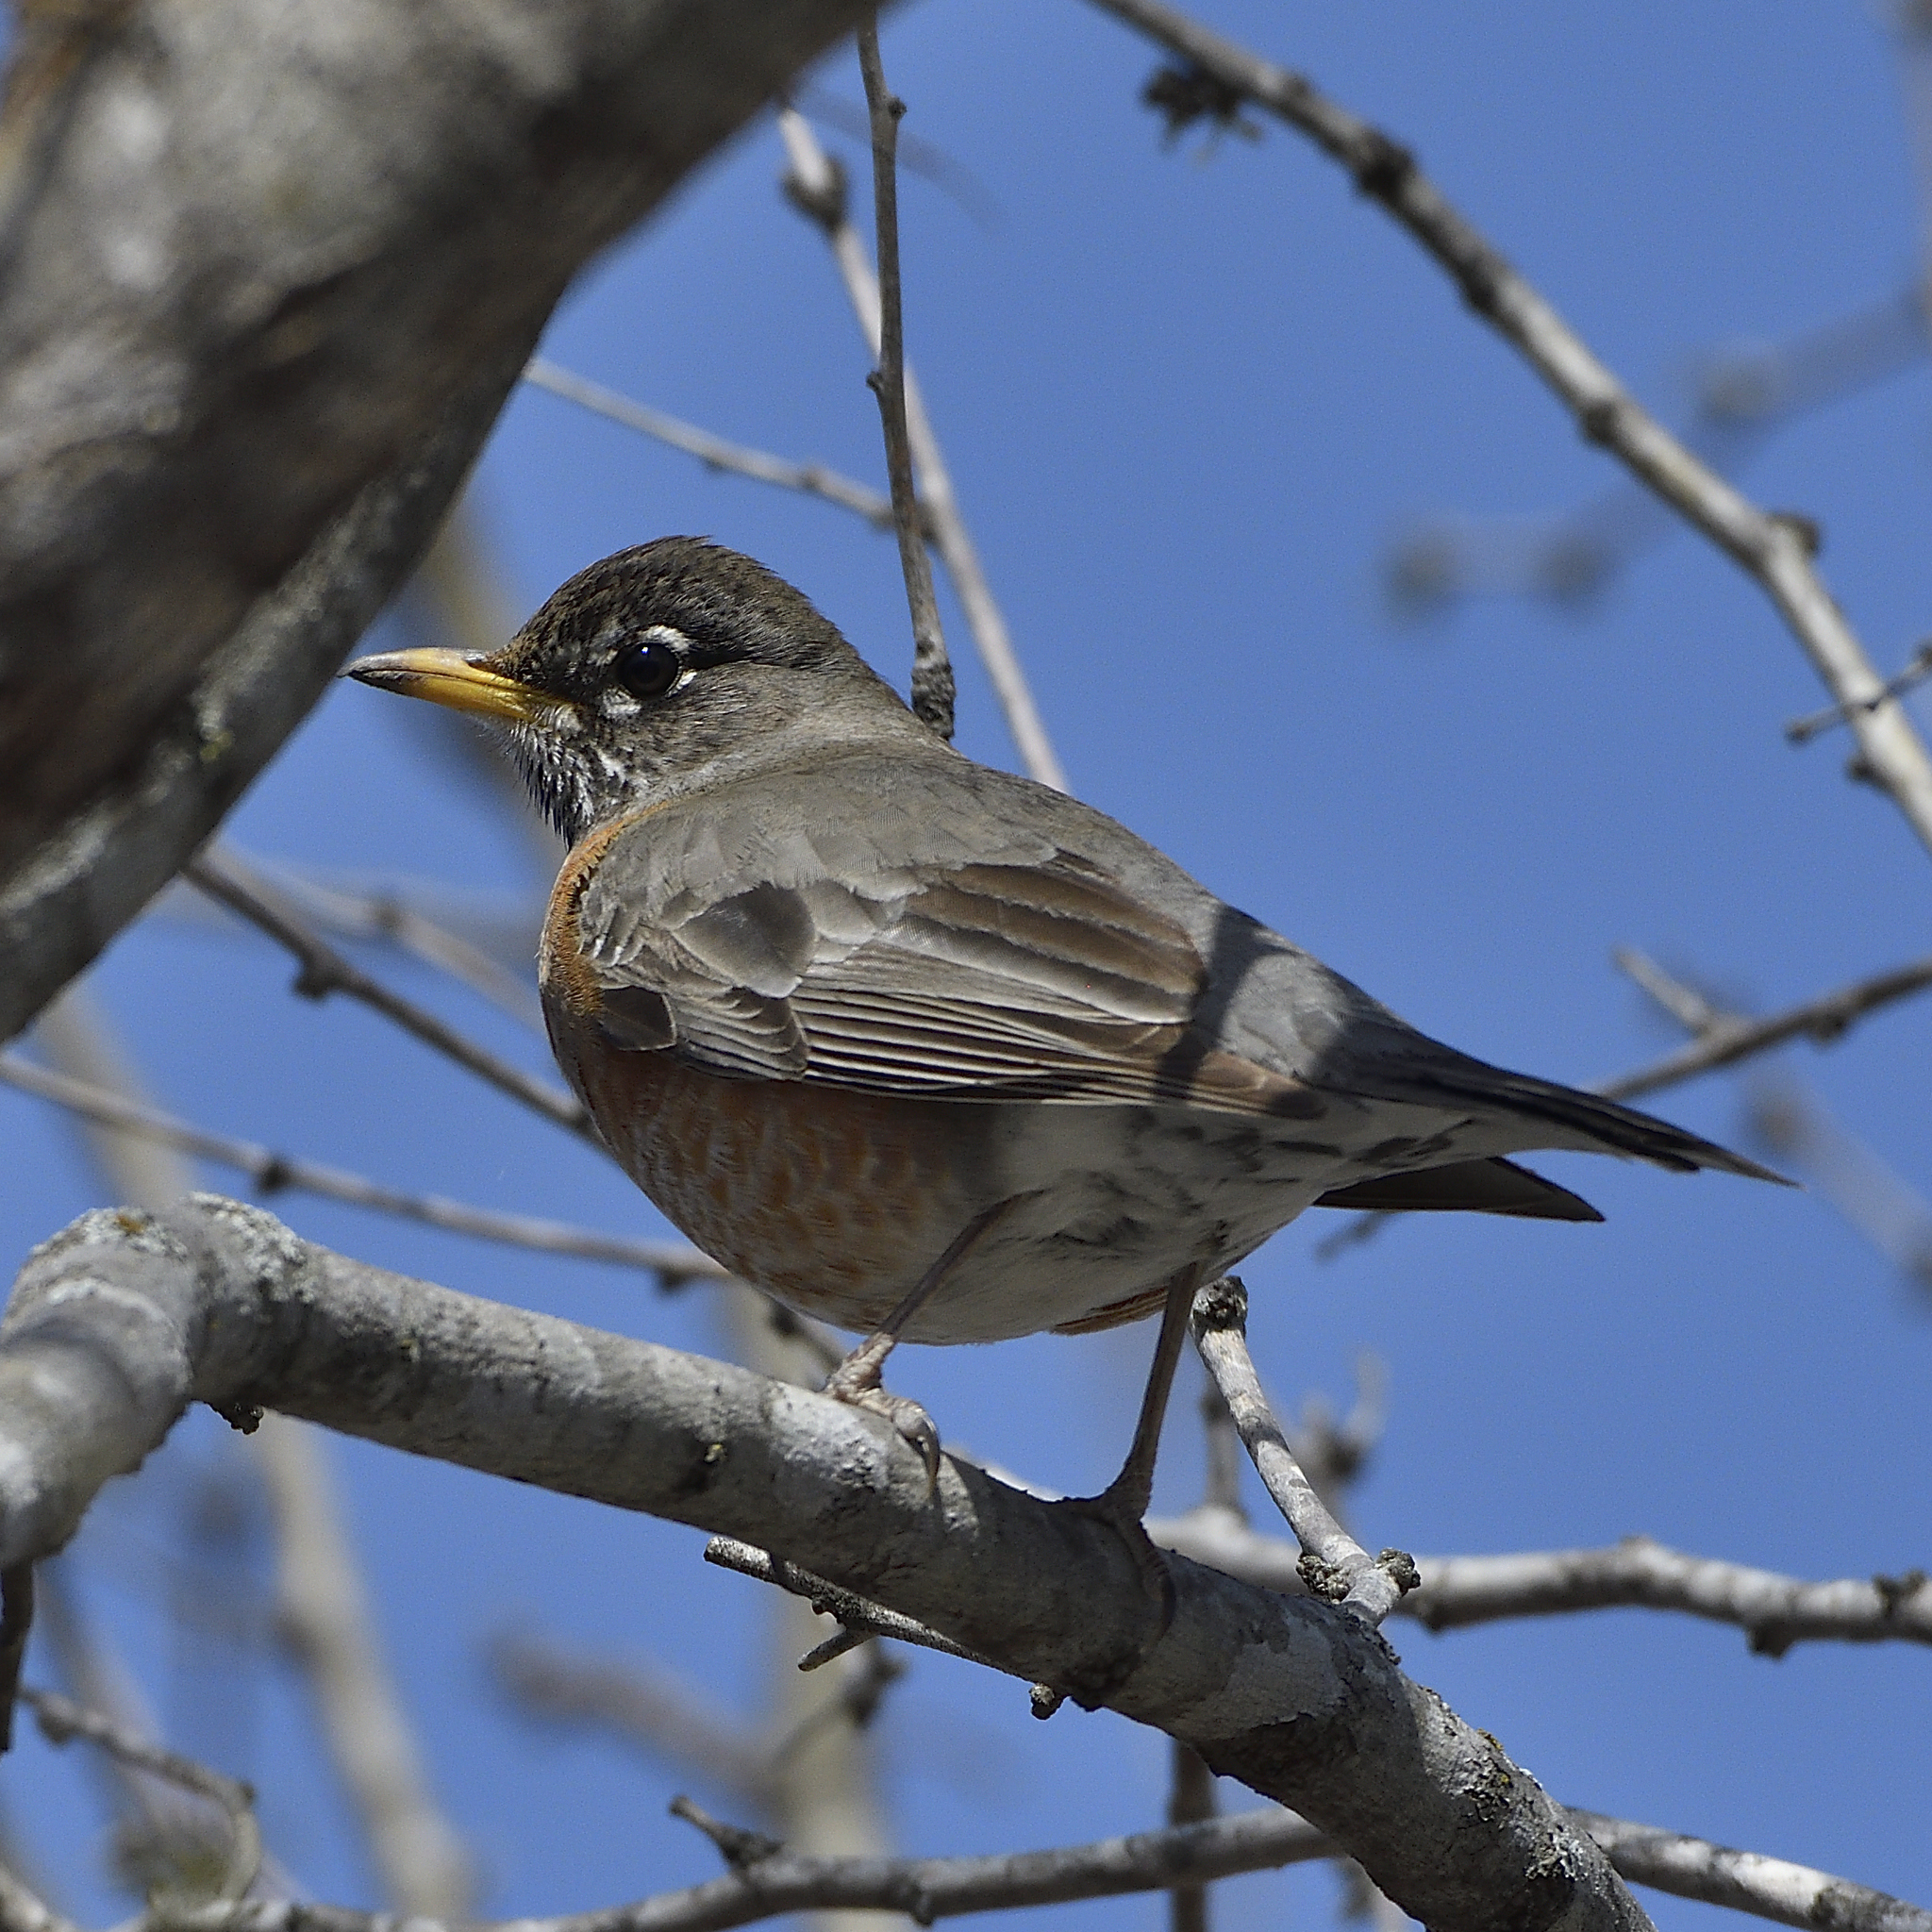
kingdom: Animalia
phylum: Chordata
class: Aves
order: Passeriformes
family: Turdidae
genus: Turdus
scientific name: Turdus migratorius
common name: American robin
